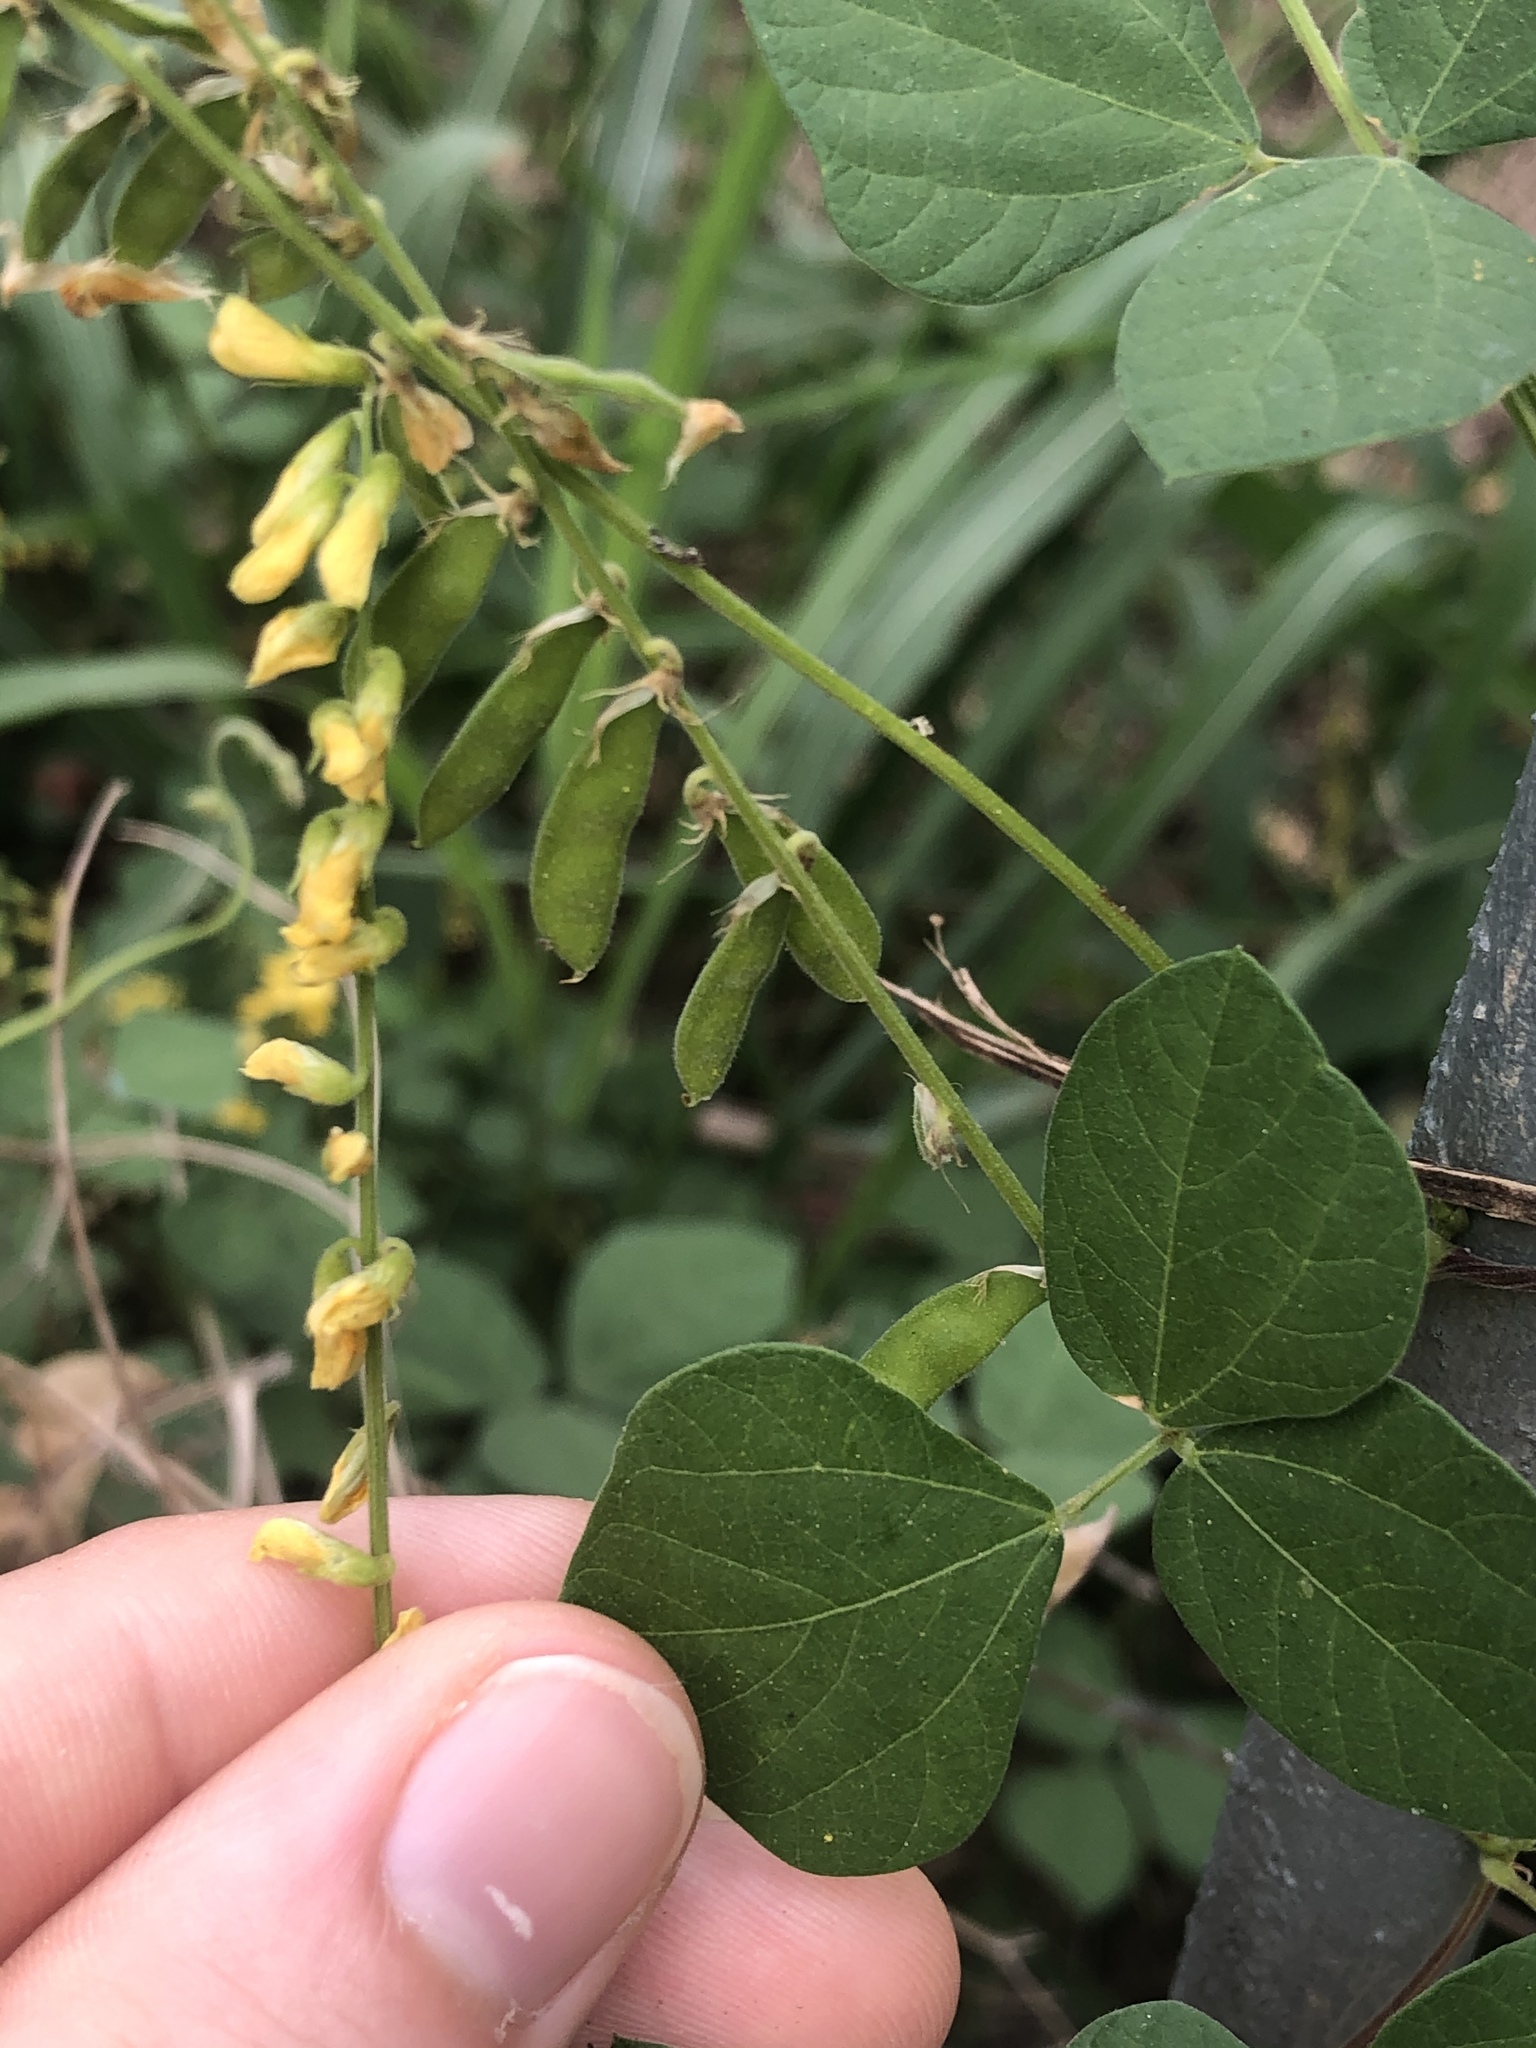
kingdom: Plantae
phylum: Tracheophyta
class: Magnoliopsida
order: Fabales
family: Fabaceae
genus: Rhynchosia
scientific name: Rhynchosia minima
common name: Least snoutbean
